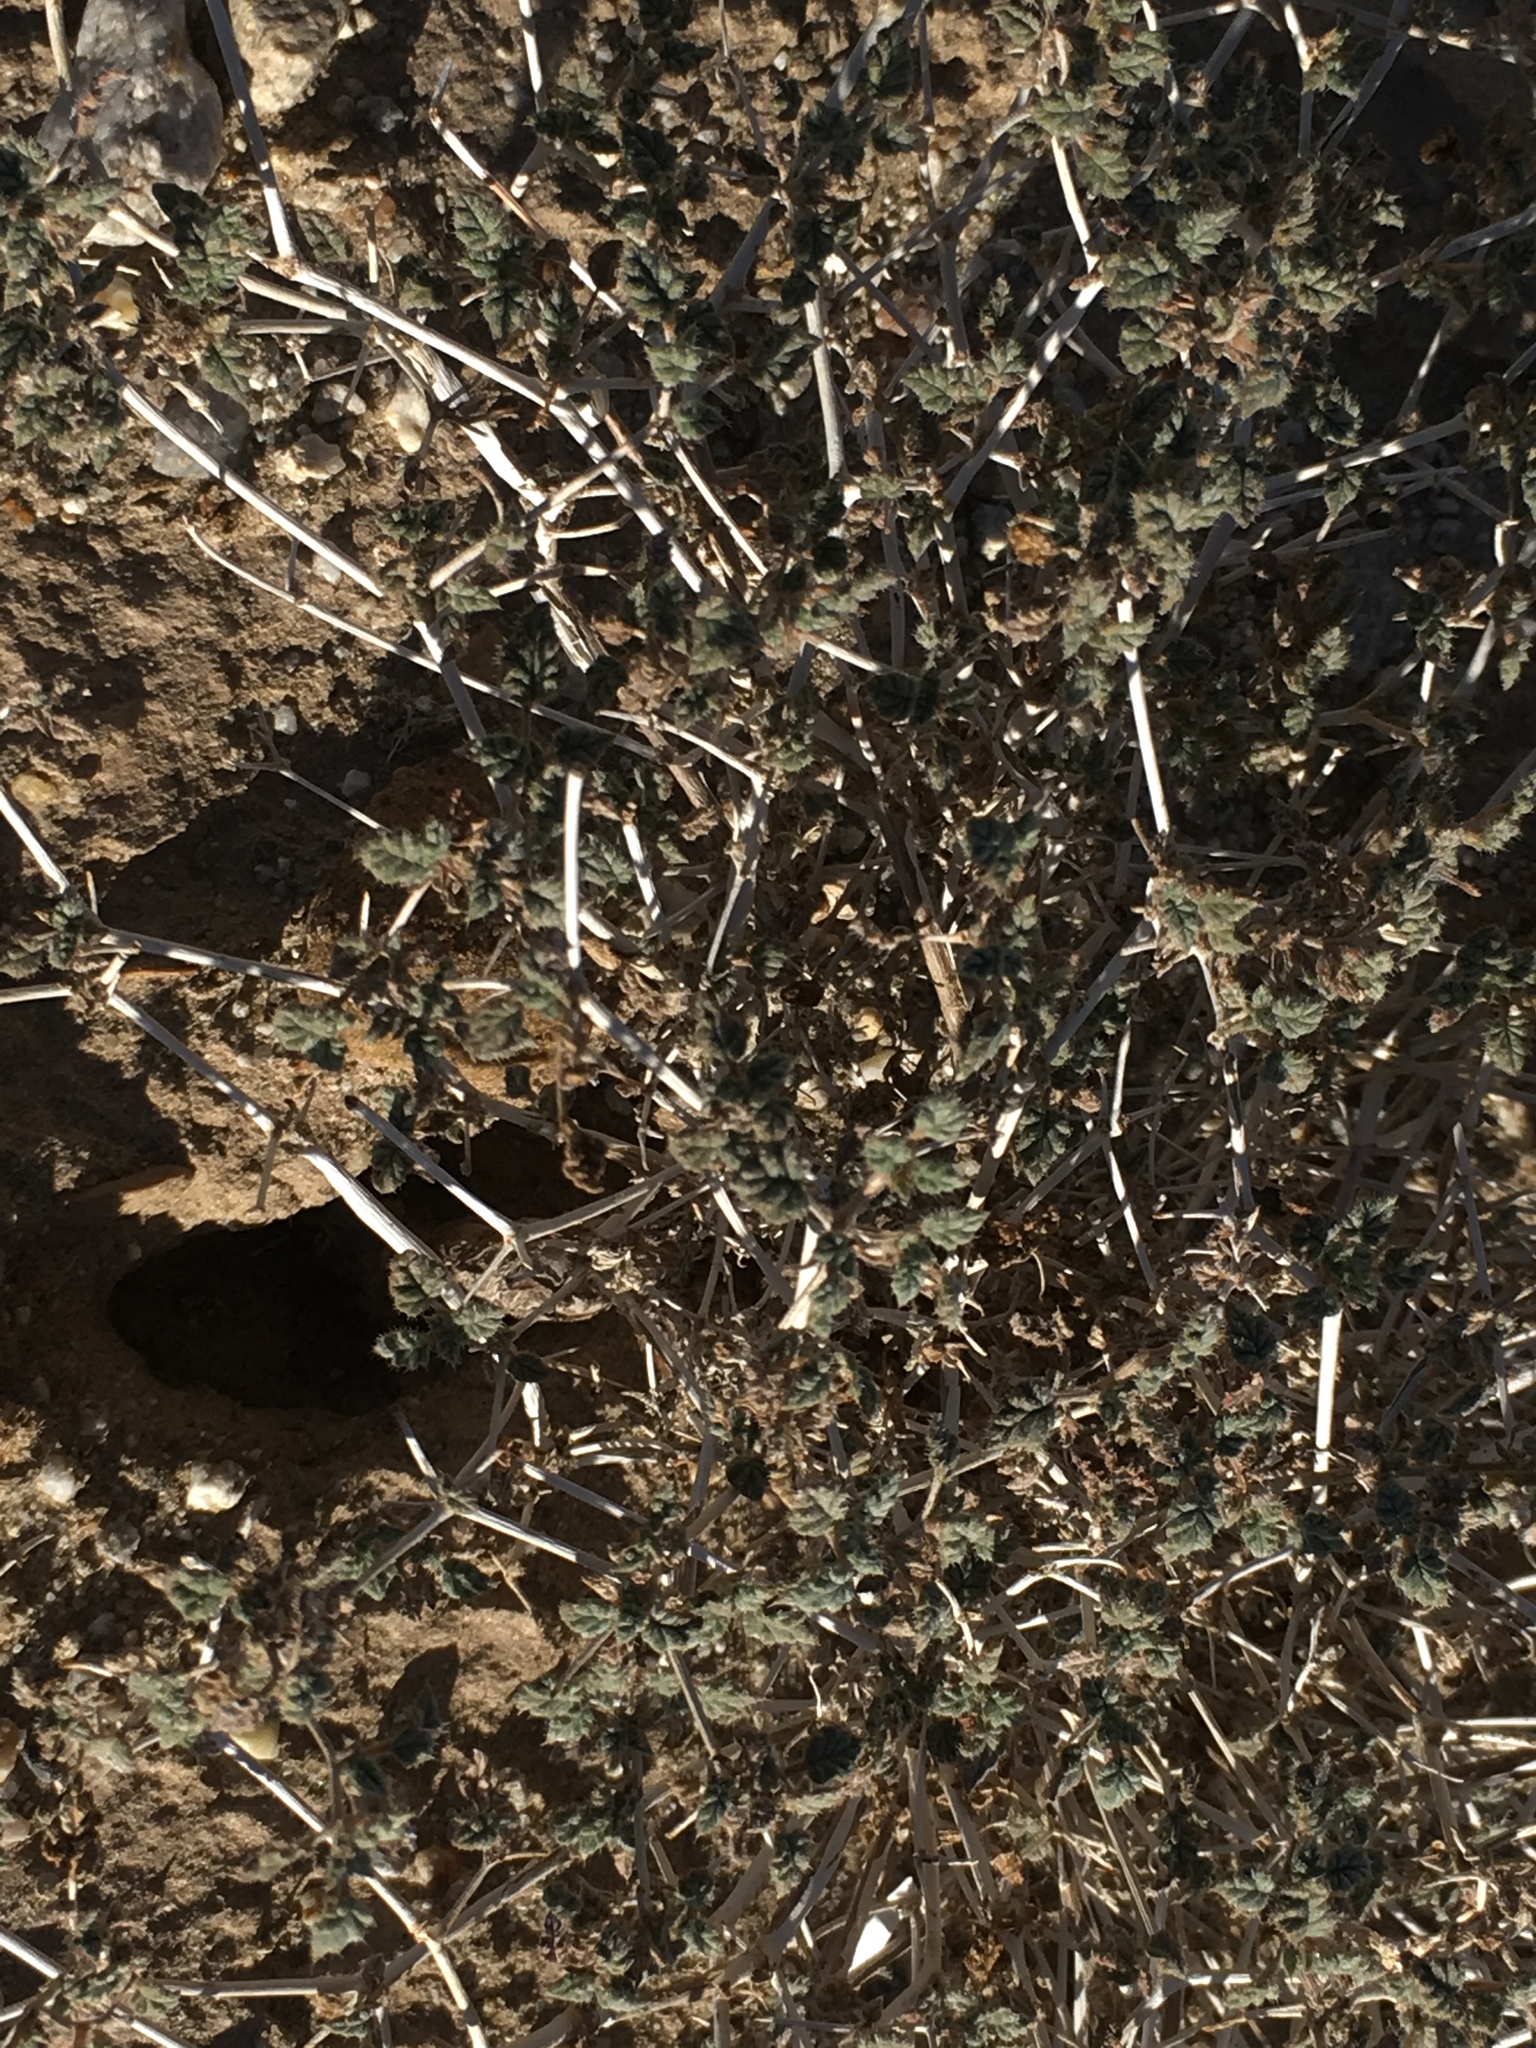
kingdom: Plantae
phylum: Tracheophyta
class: Magnoliopsida
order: Boraginales
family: Ehretiaceae
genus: Tiquilia
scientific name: Tiquilia palmeri
